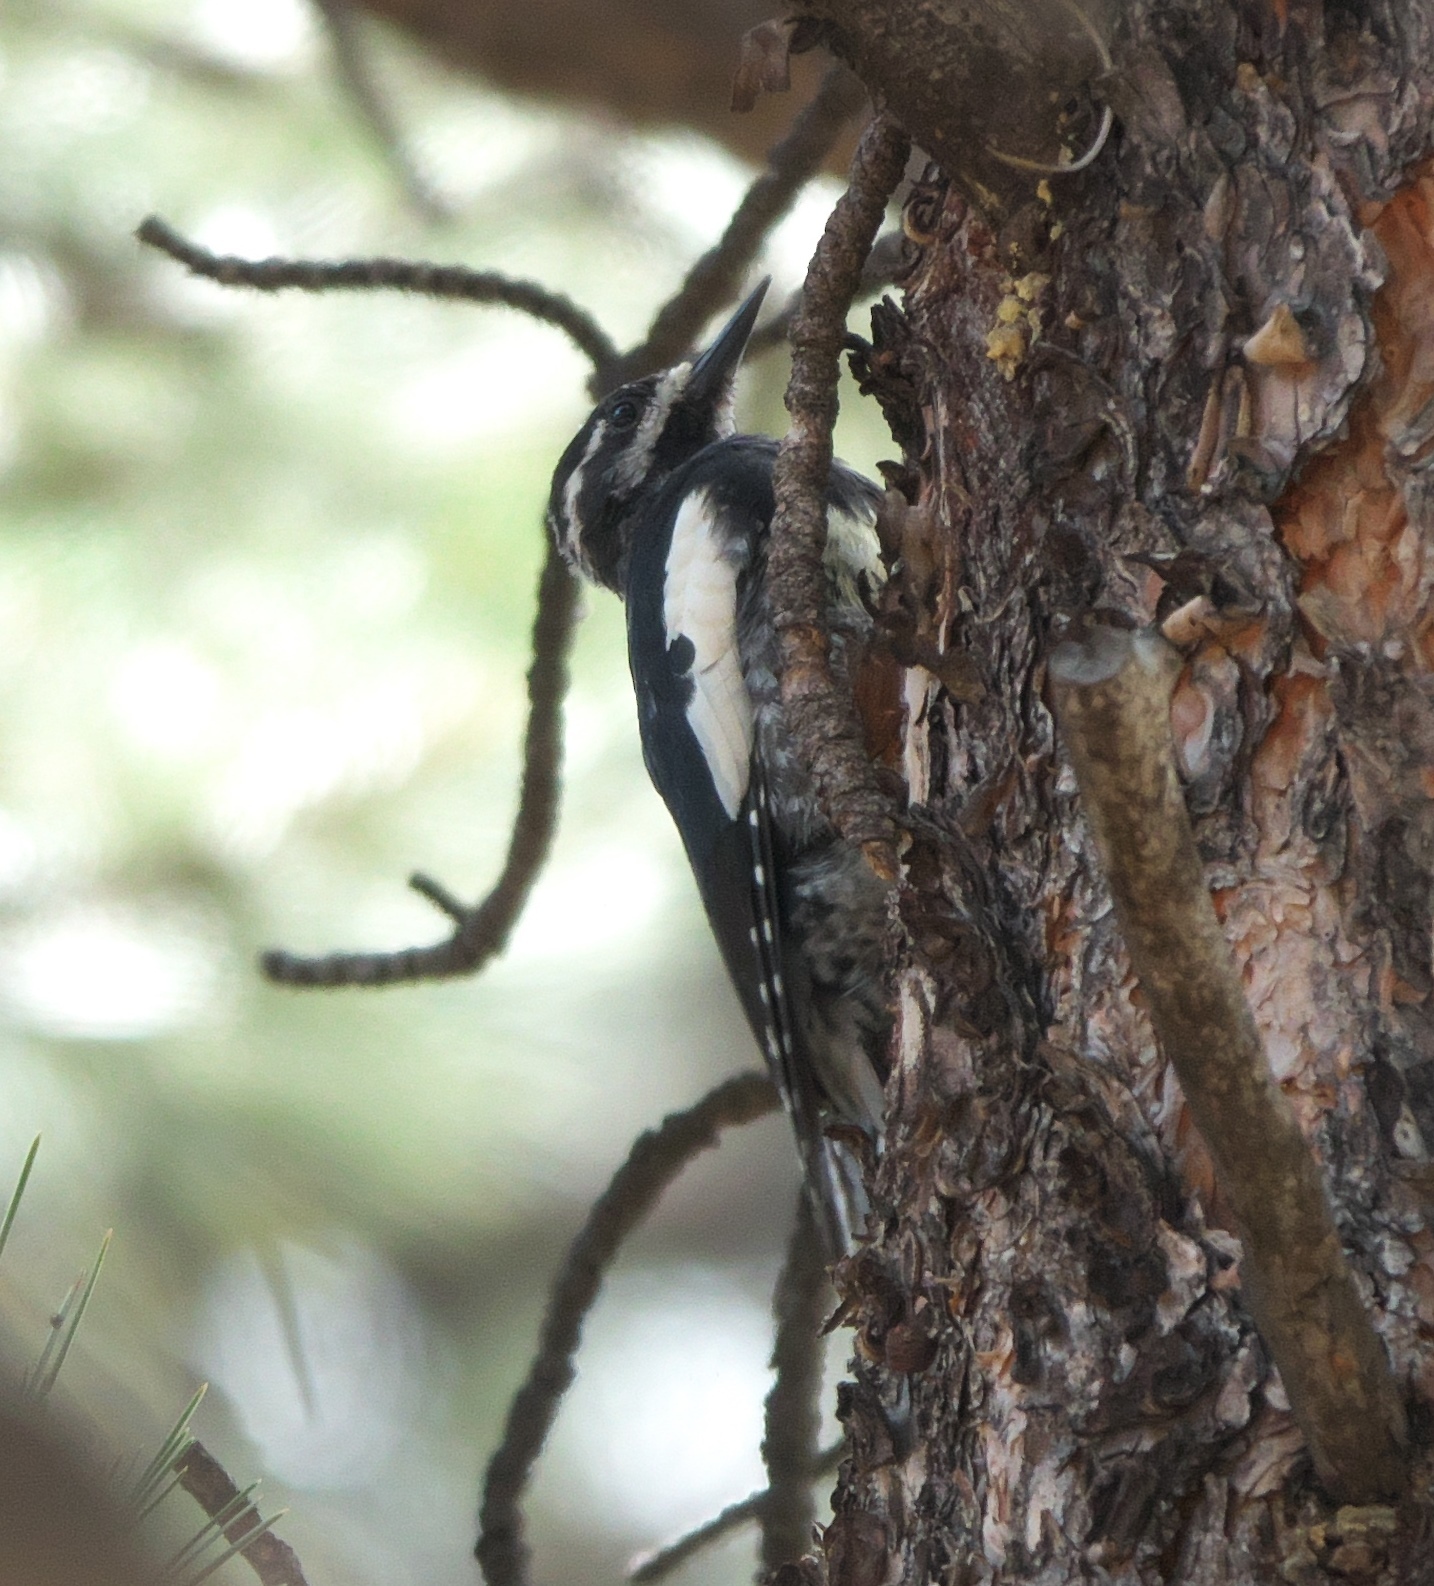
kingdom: Animalia
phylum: Chordata
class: Aves
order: Piciformes
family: Picidae
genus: Sphyrapicus
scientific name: Sphyrapicus thyroideus
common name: Williamson's sapsucker
